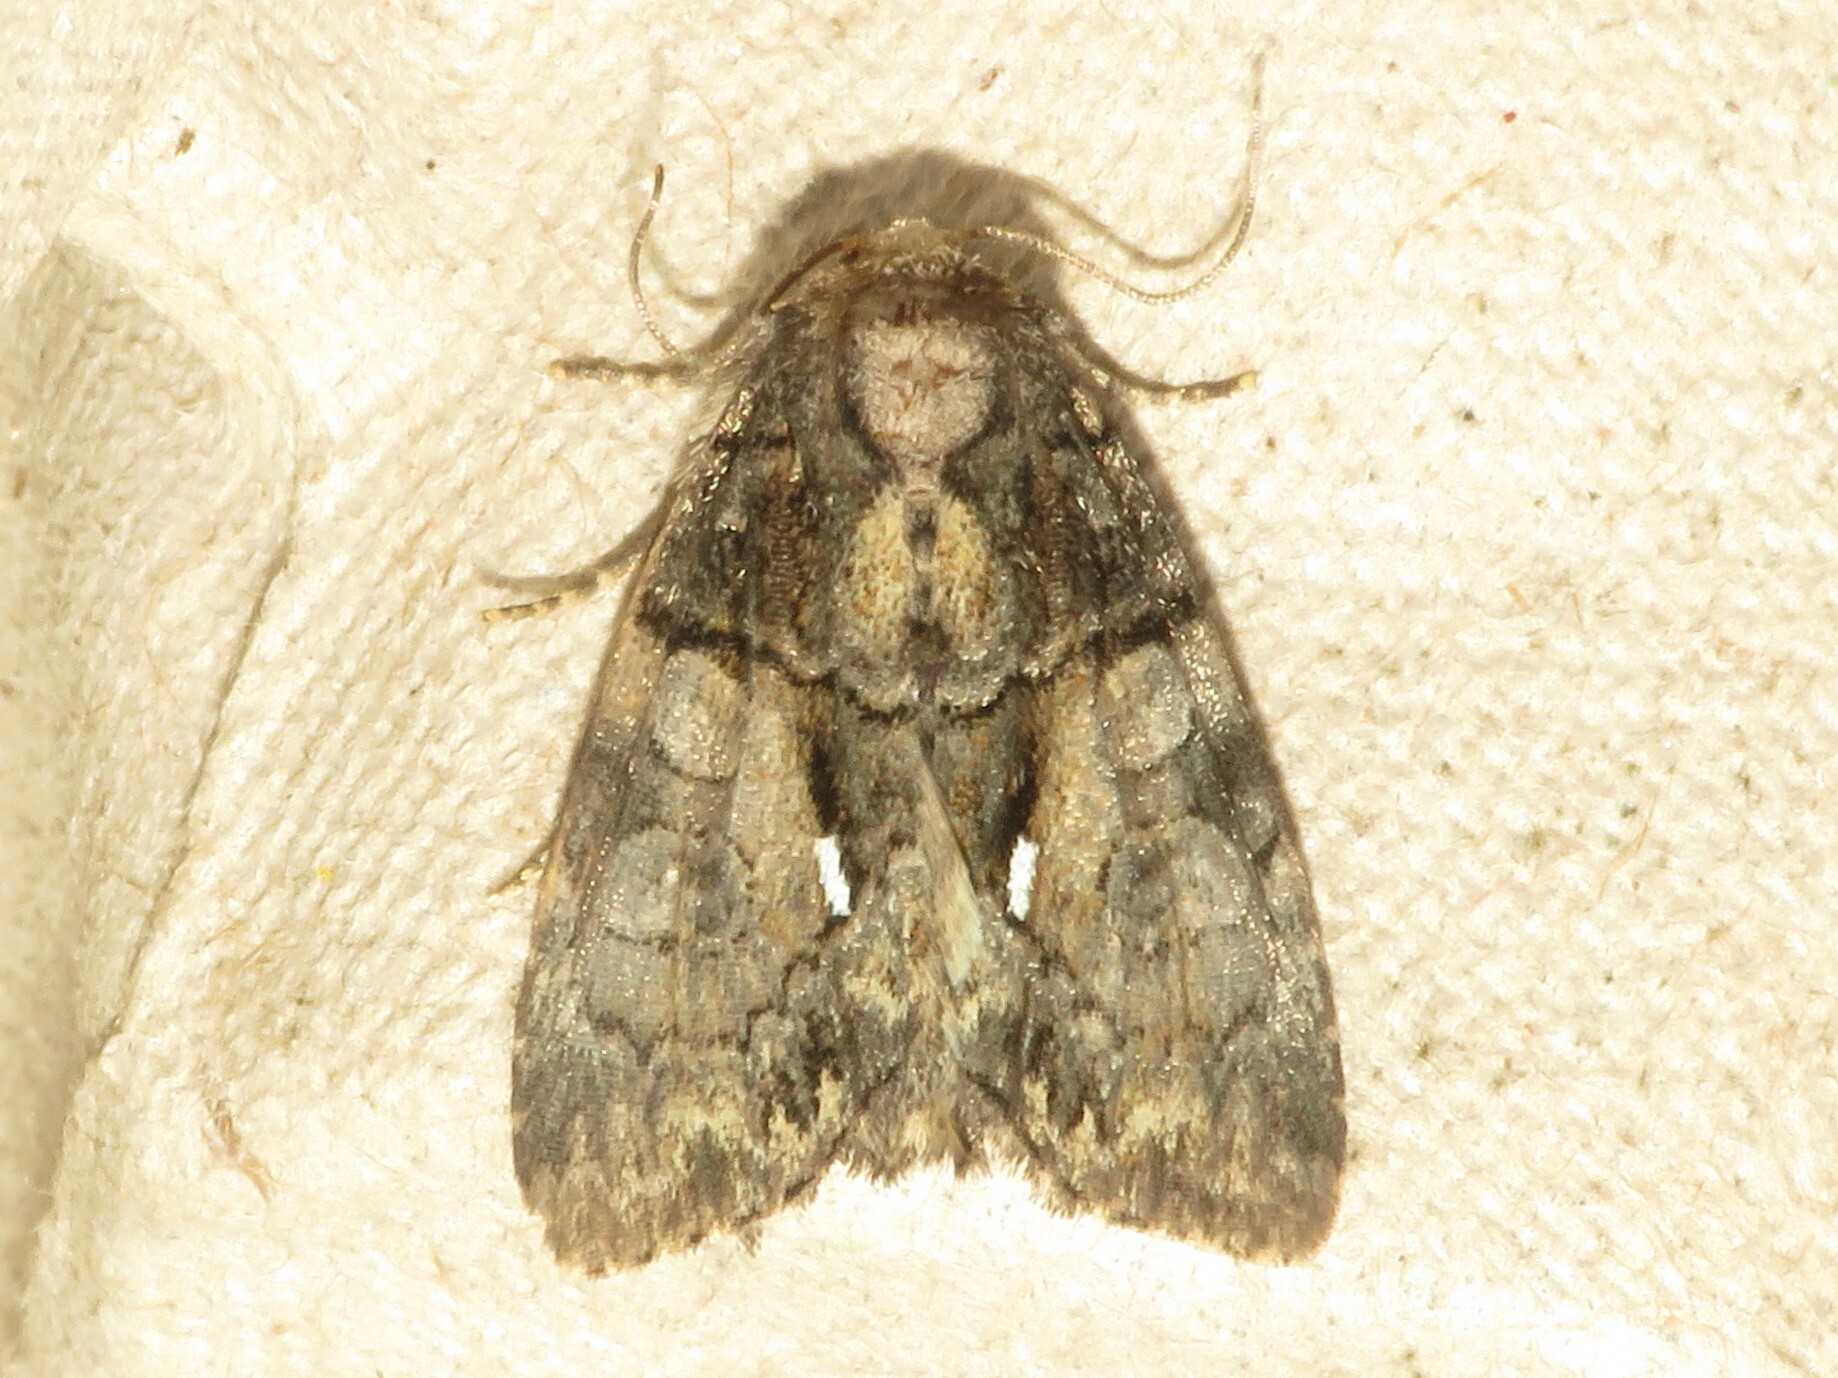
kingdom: Animalia
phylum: Arthropoda
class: Insecta
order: Lepidoptera
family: Noctuidae
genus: Chytonix
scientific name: Chytonix palliatricula
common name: Cloaked marvel
